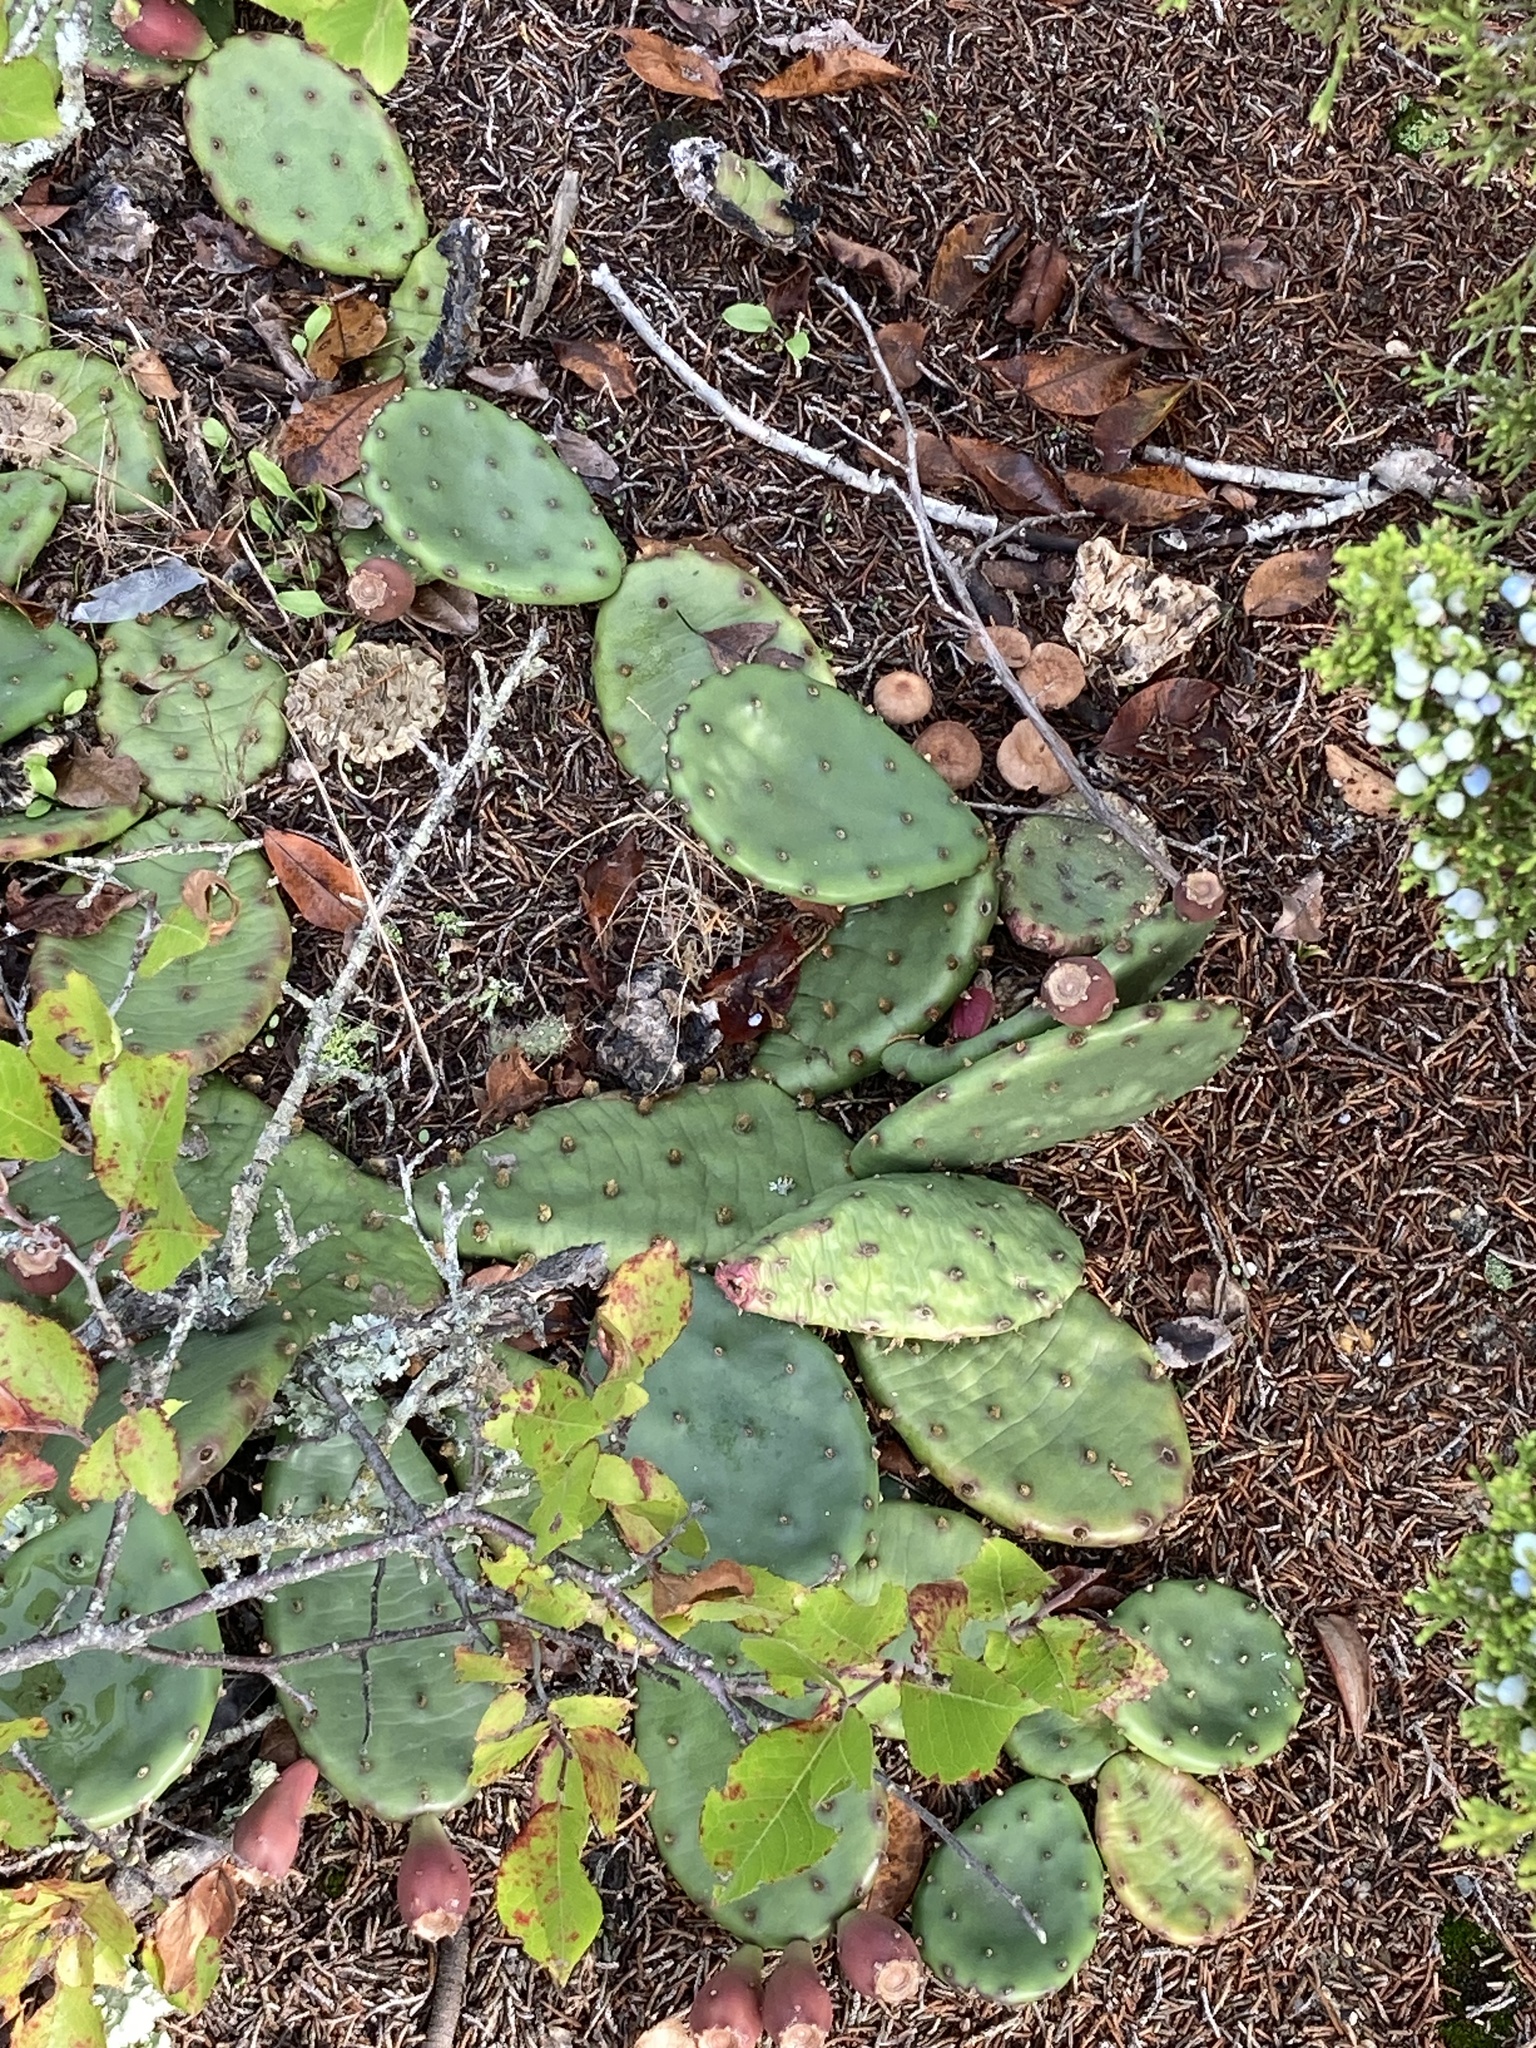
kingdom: Plantae
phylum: Tracheophyta
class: Magnoliopsida
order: Caryophyllales
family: Cactaceae
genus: Opuntia
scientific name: Opuntia humifusa
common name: Eastern prickly-pear
